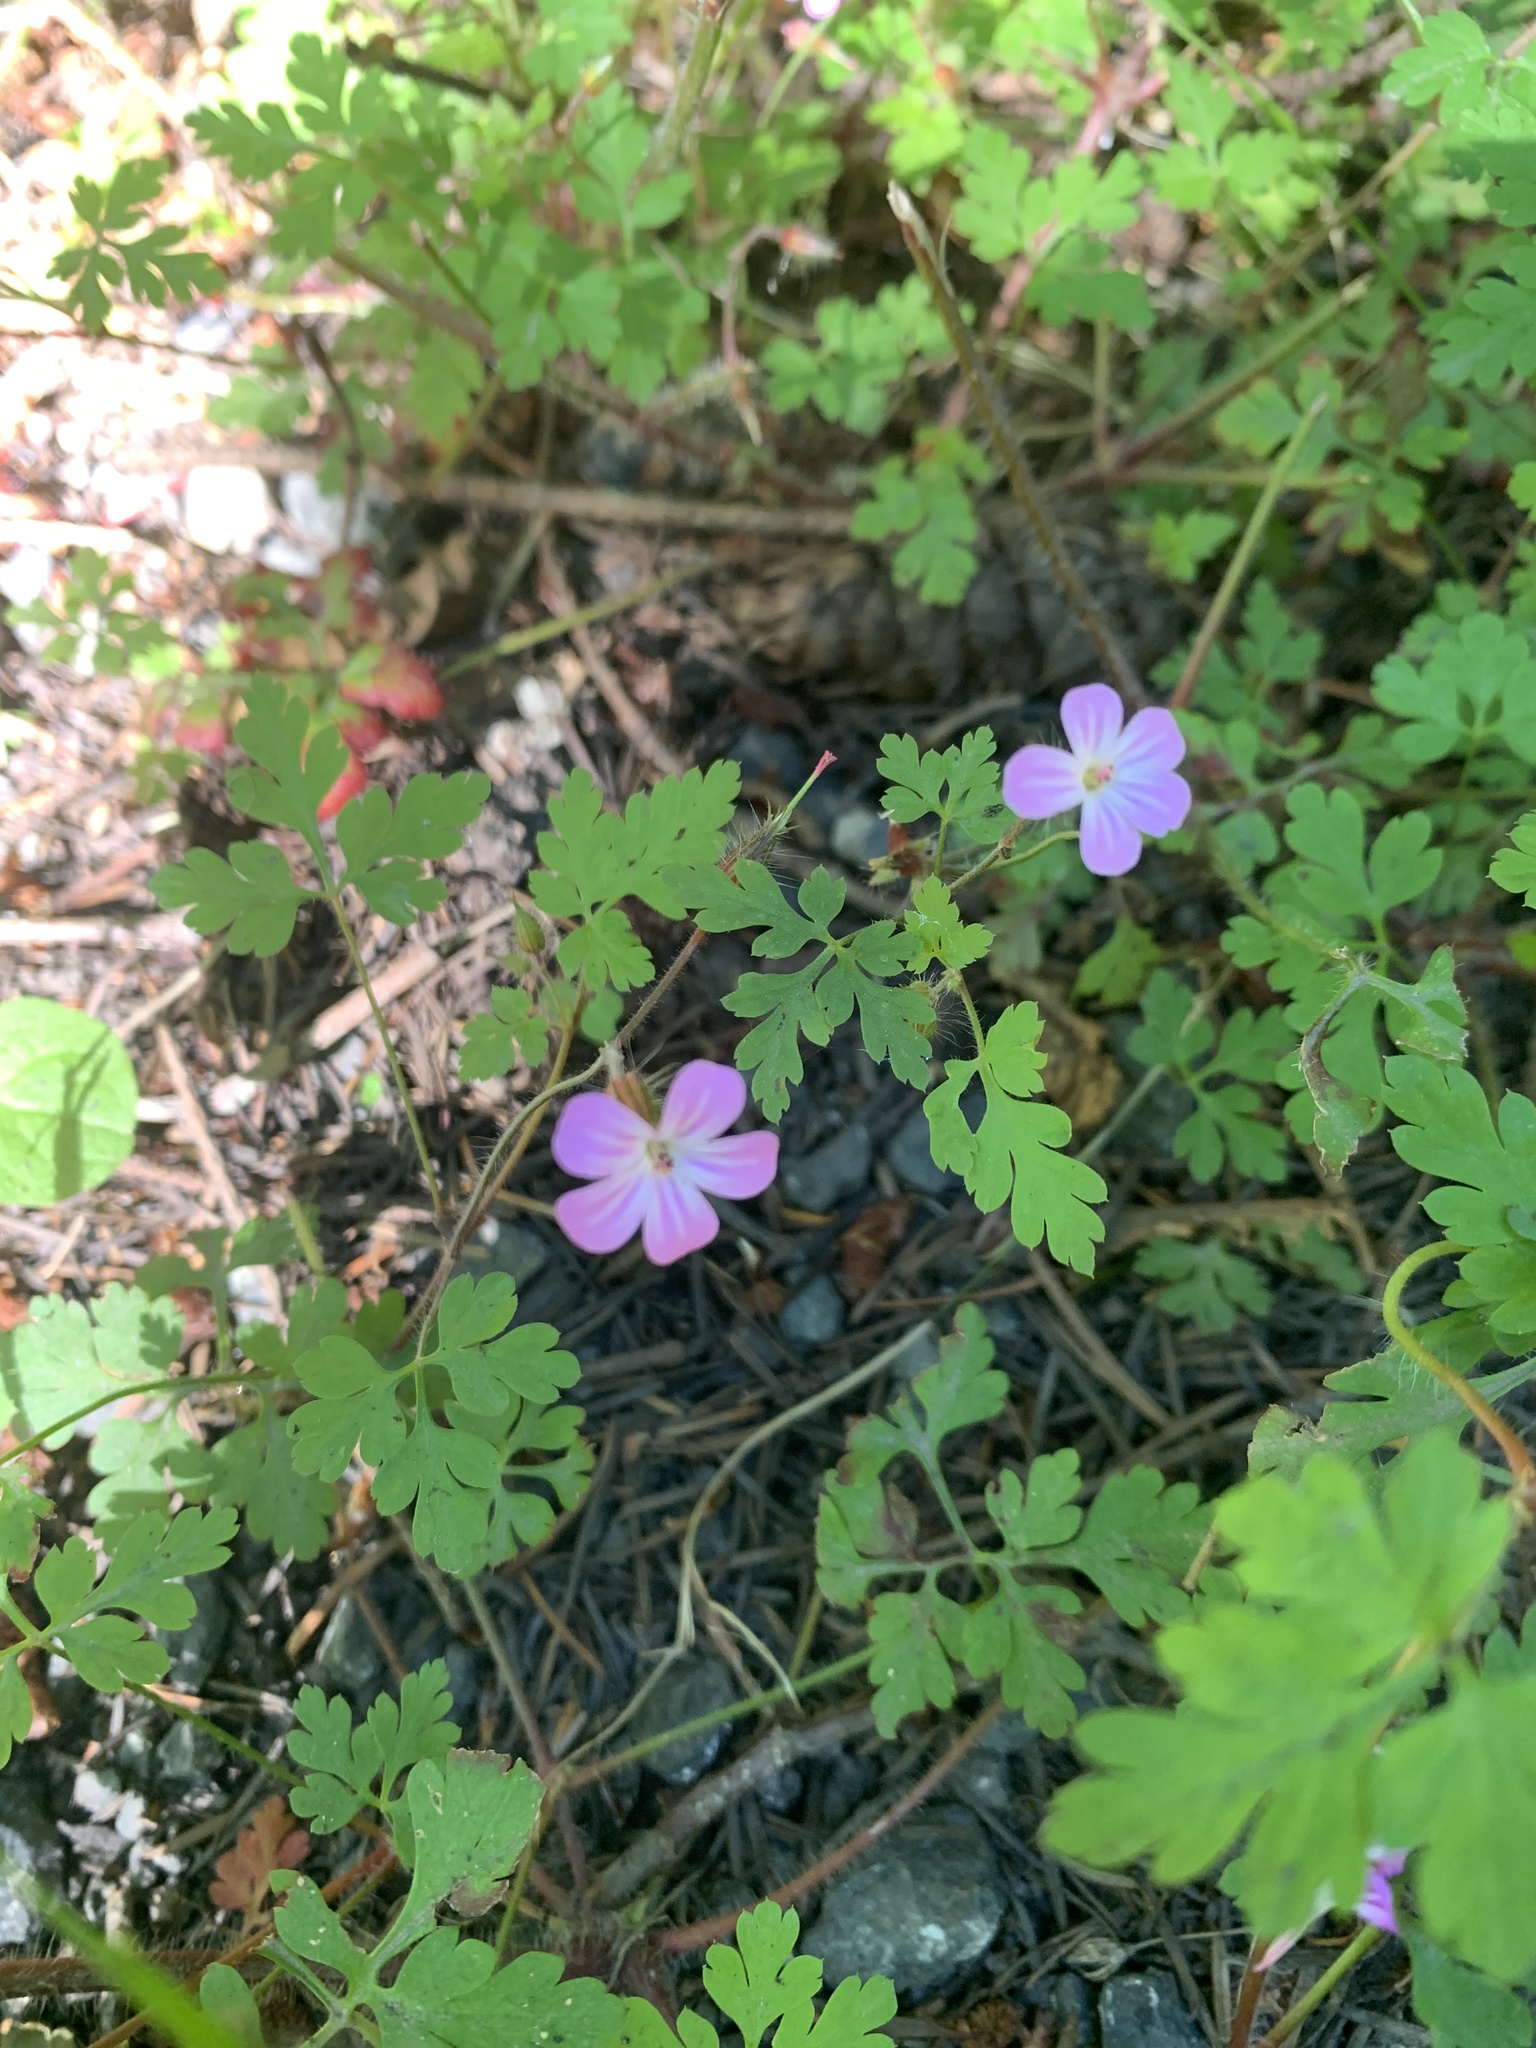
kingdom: Plantae
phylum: Tracheophyta
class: Magnoliopsida
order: Geraniales
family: Geraniaceae
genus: Geranium
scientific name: Geranium robertianum
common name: Herb-robert
